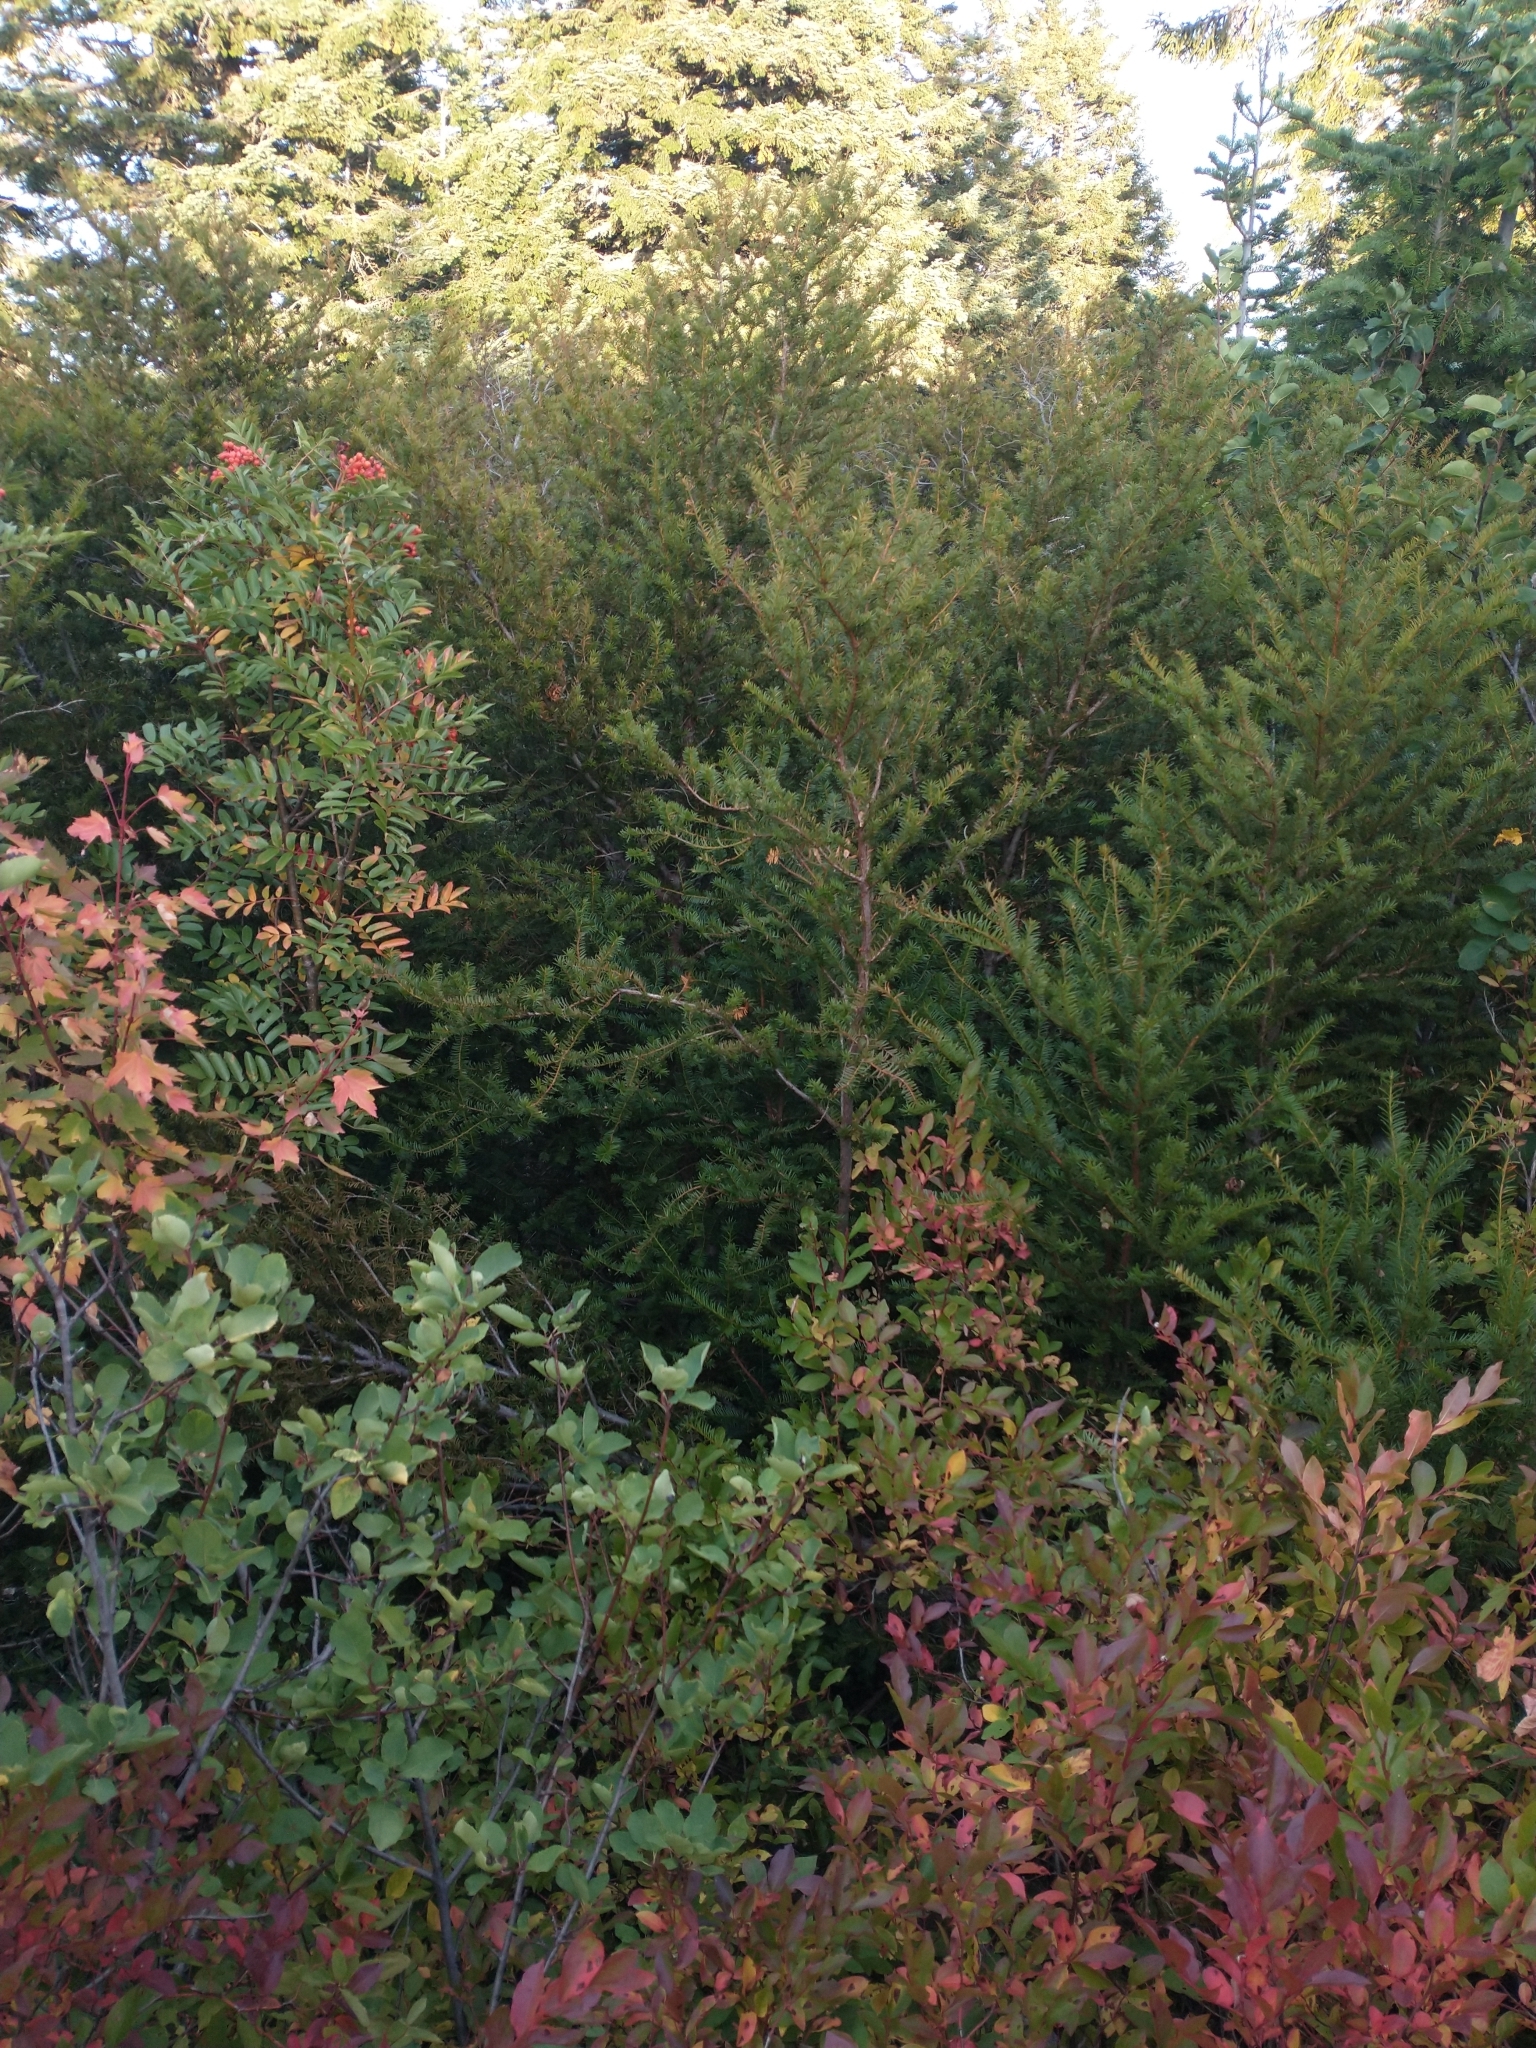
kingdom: Plantae
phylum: Tracheophyta
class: Pinopsida
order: Pinales
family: Taxaceae
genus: Taxus
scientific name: Taxus brevifolia
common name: Pacific yew
